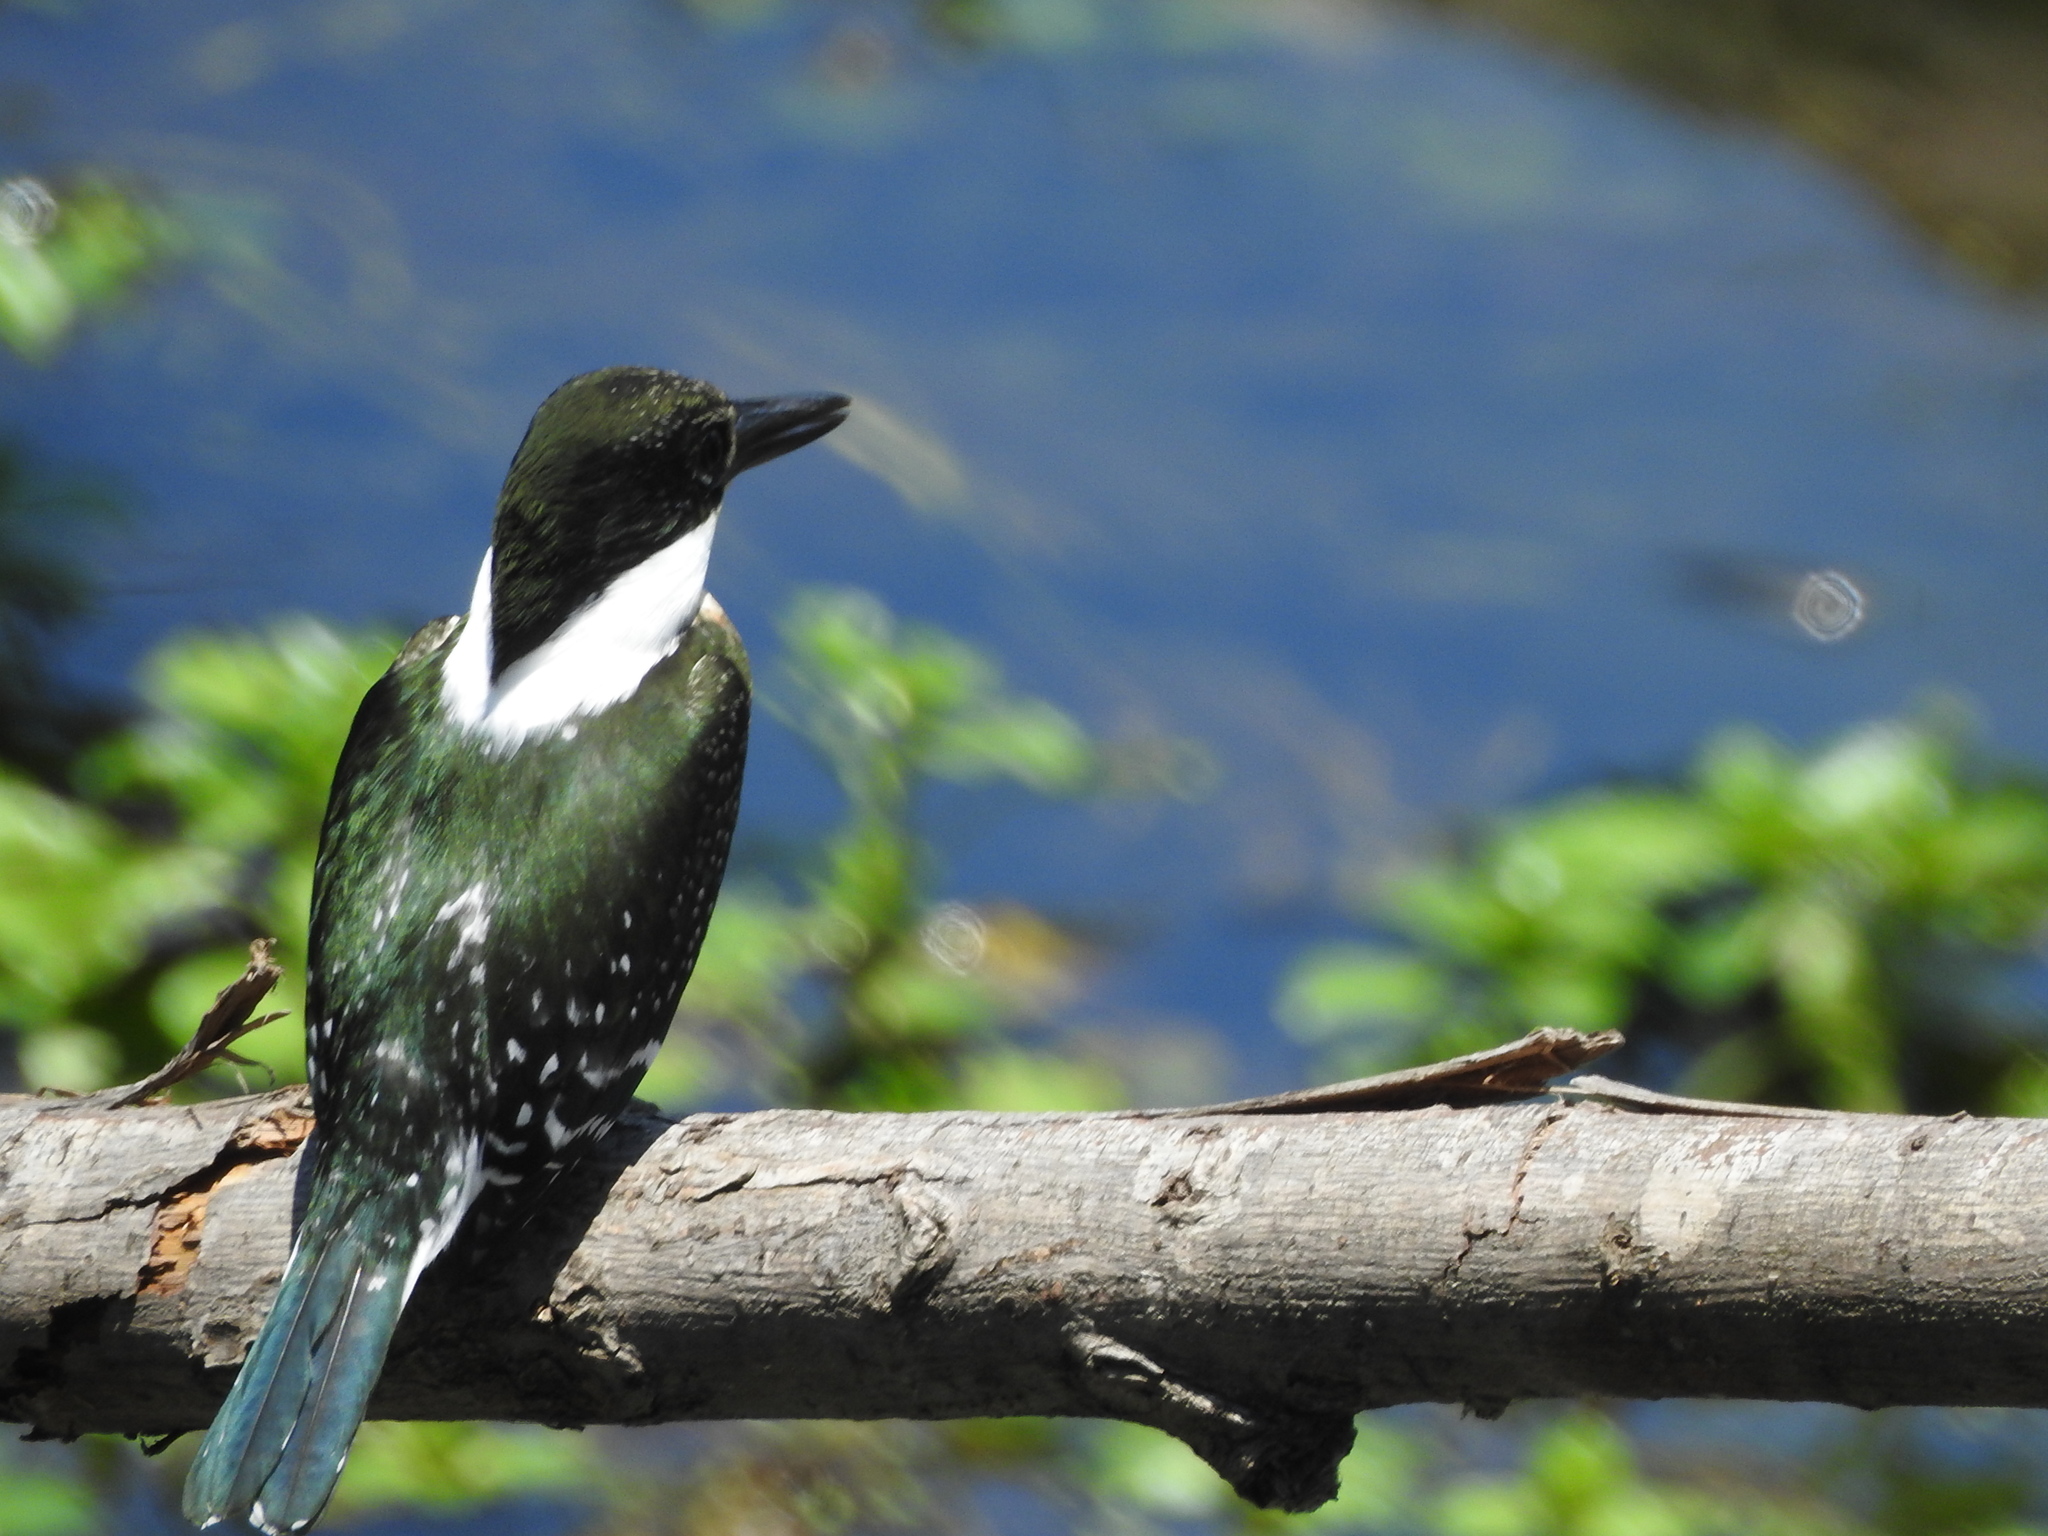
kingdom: Animalia
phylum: Chordata
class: Aves
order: Coraciiformes
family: Alcedinidae
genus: Chloroceryle
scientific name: Chloroceryle americana
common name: Green kingfisher
